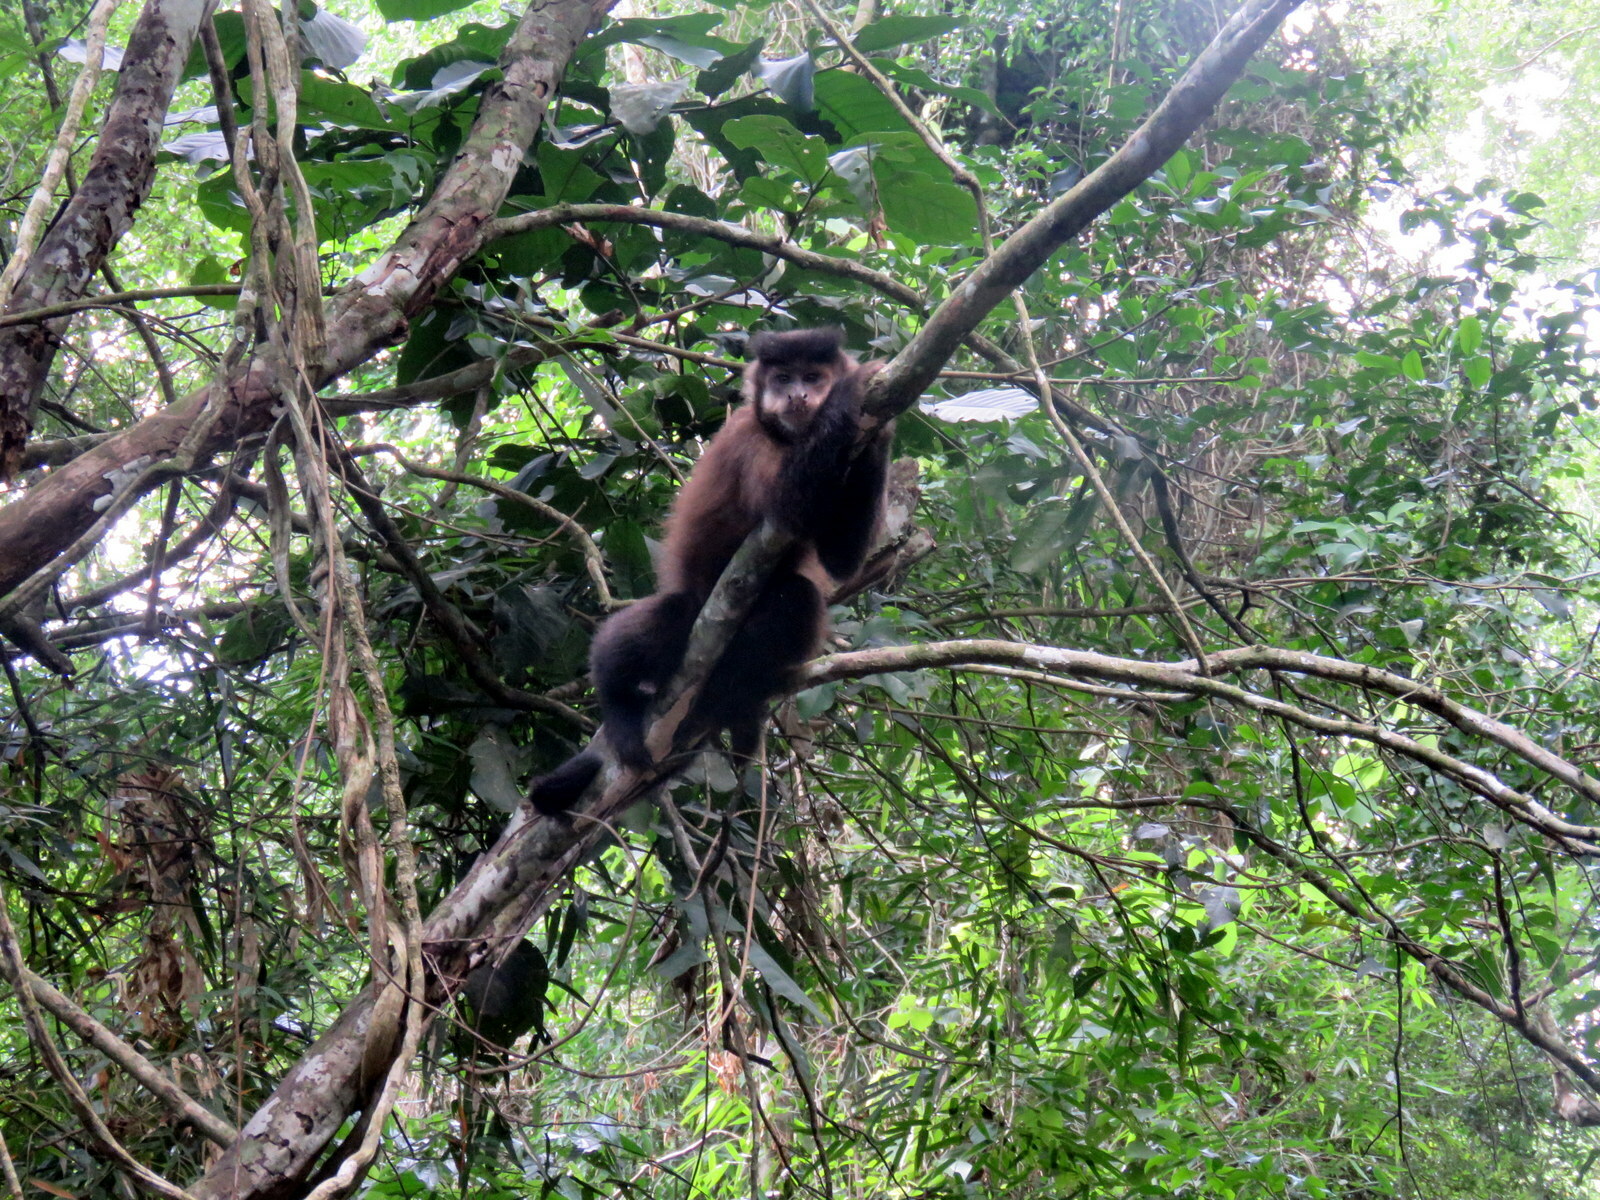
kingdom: Animalia
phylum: Chordata
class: Mammalia
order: Primates
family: Cebidae
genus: Sapajus
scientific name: Sapajus nigritus
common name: Black capuchin
